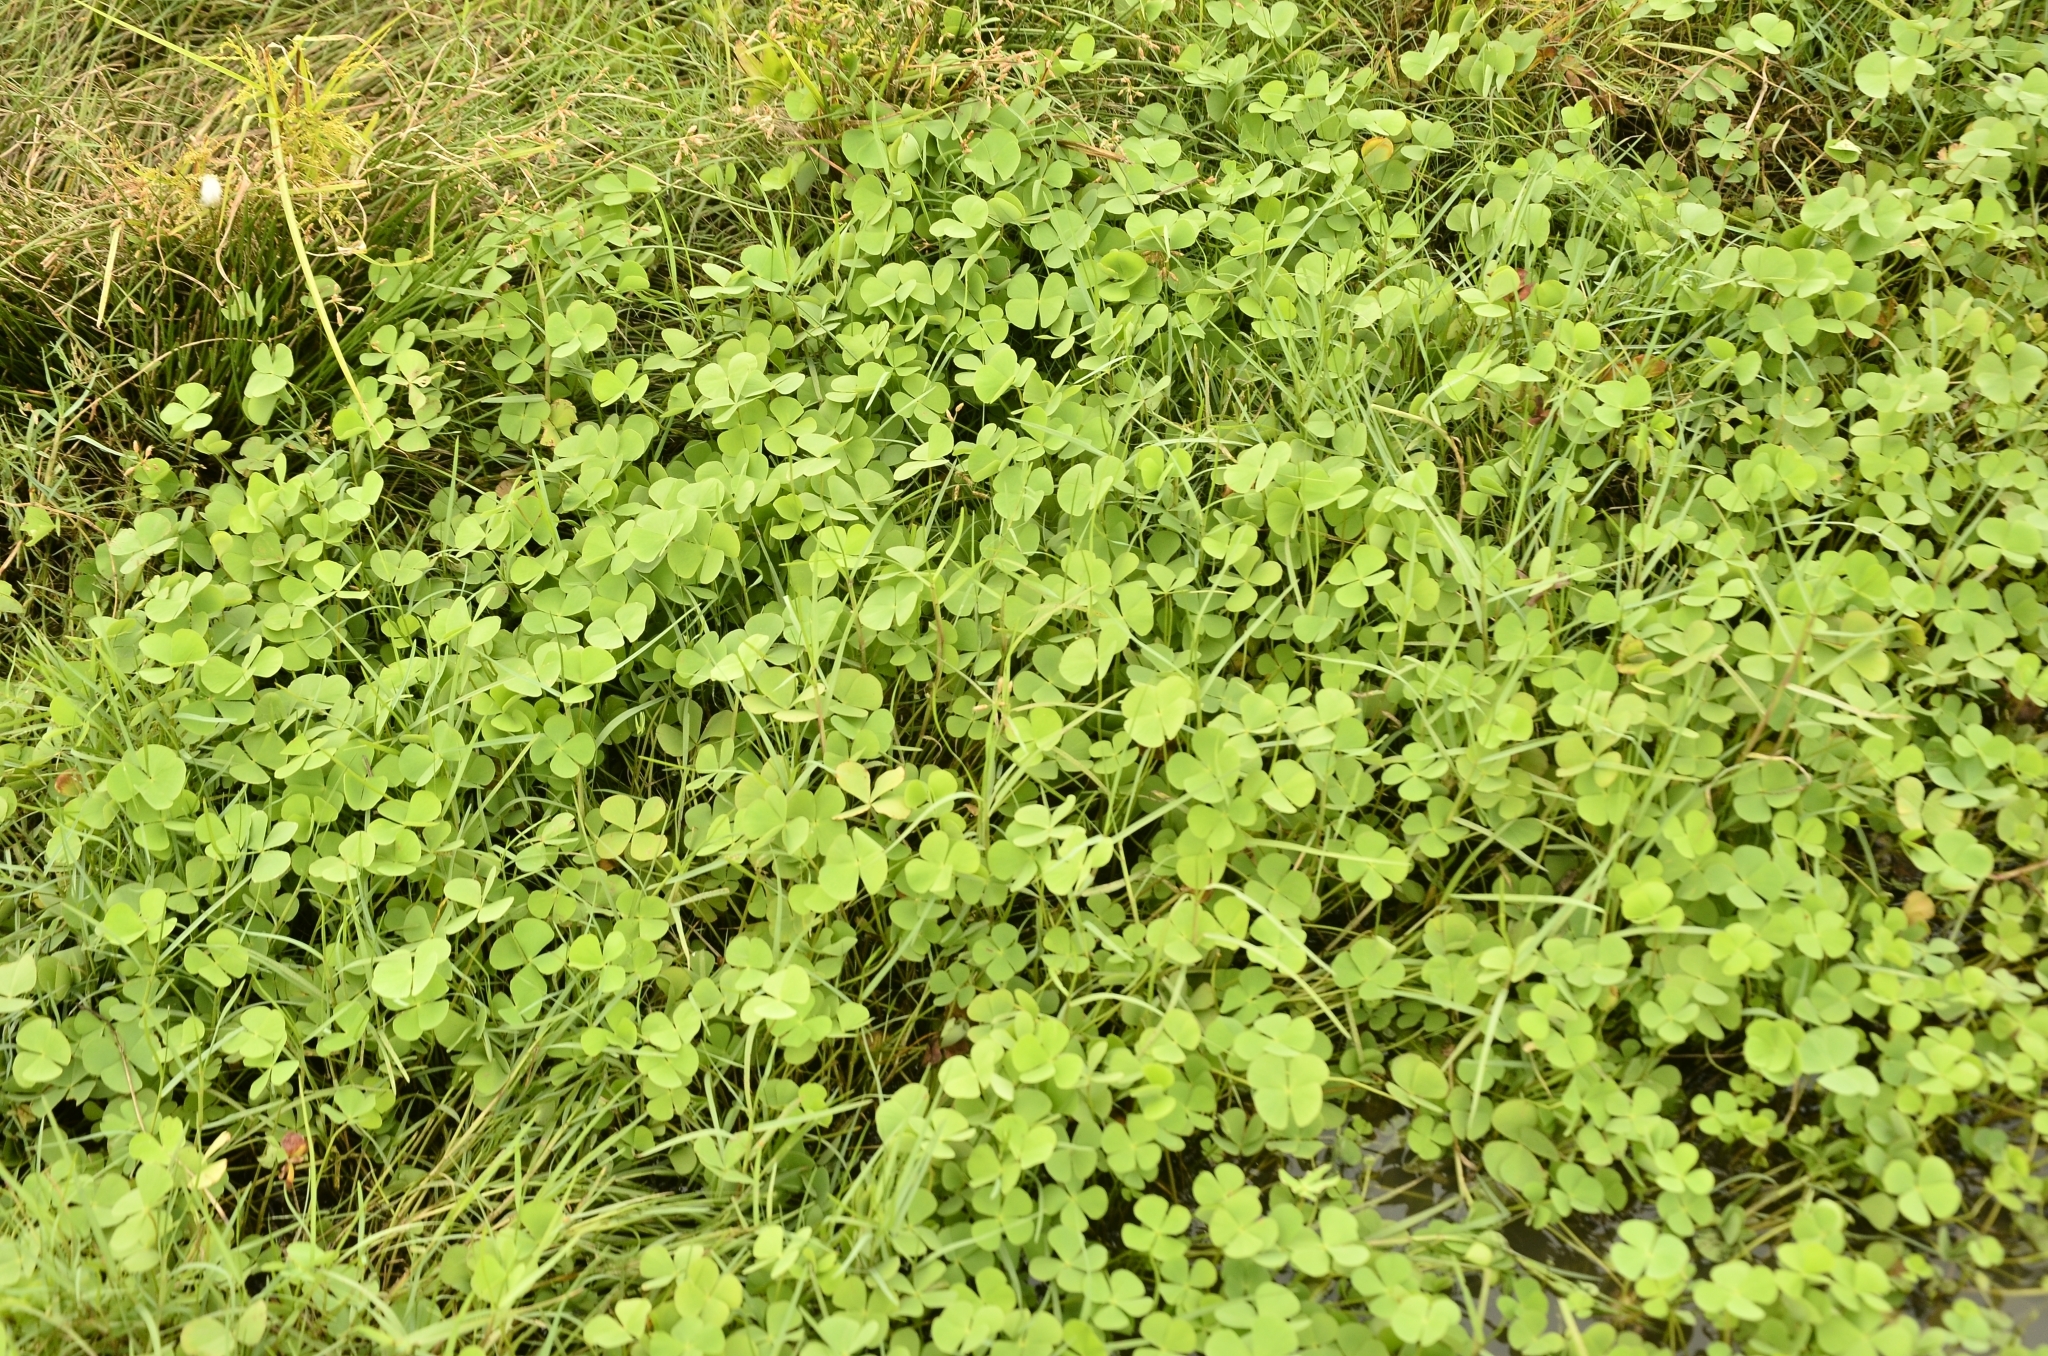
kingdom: Plantae
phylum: Tracheophyta
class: Polypodiopsida
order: Salviniales
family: Marsileaceae
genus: Marsilea
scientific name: Marsilea minuta
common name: Dwarf waterclover
